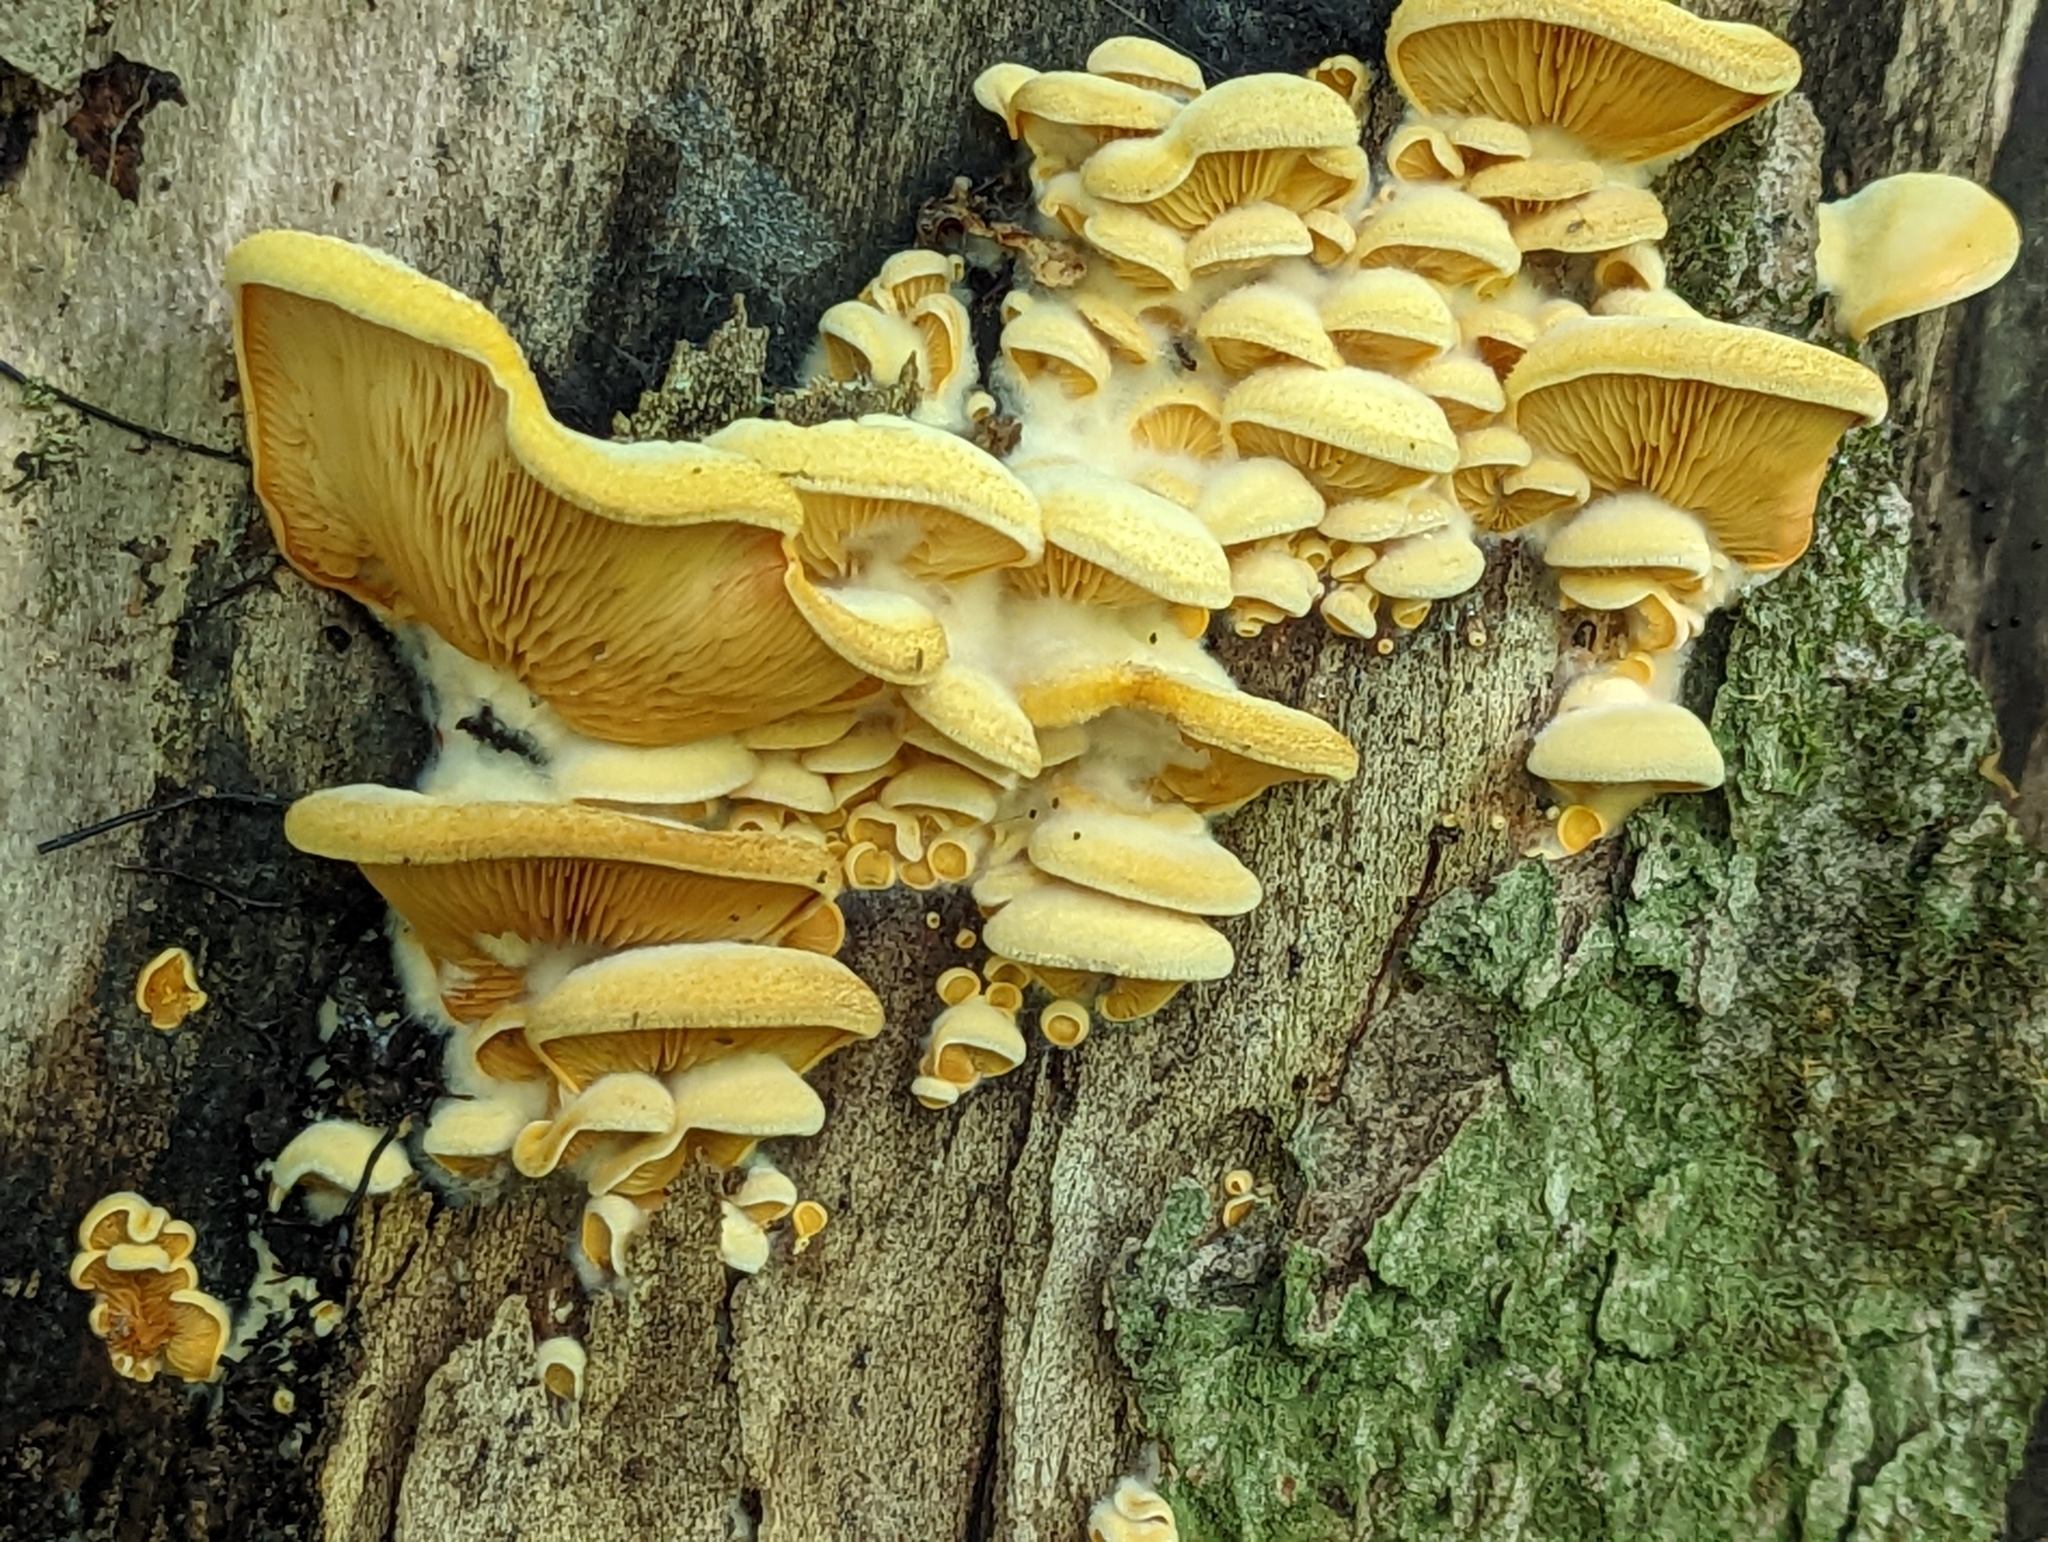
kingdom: Fungi
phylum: Basidiomycota
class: Agaricomycetes
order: Agaricales
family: Phyllotopsidaceae
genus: Phyllotopsis
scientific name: Phyllotopsis nidulans
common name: Orange mock oyster
